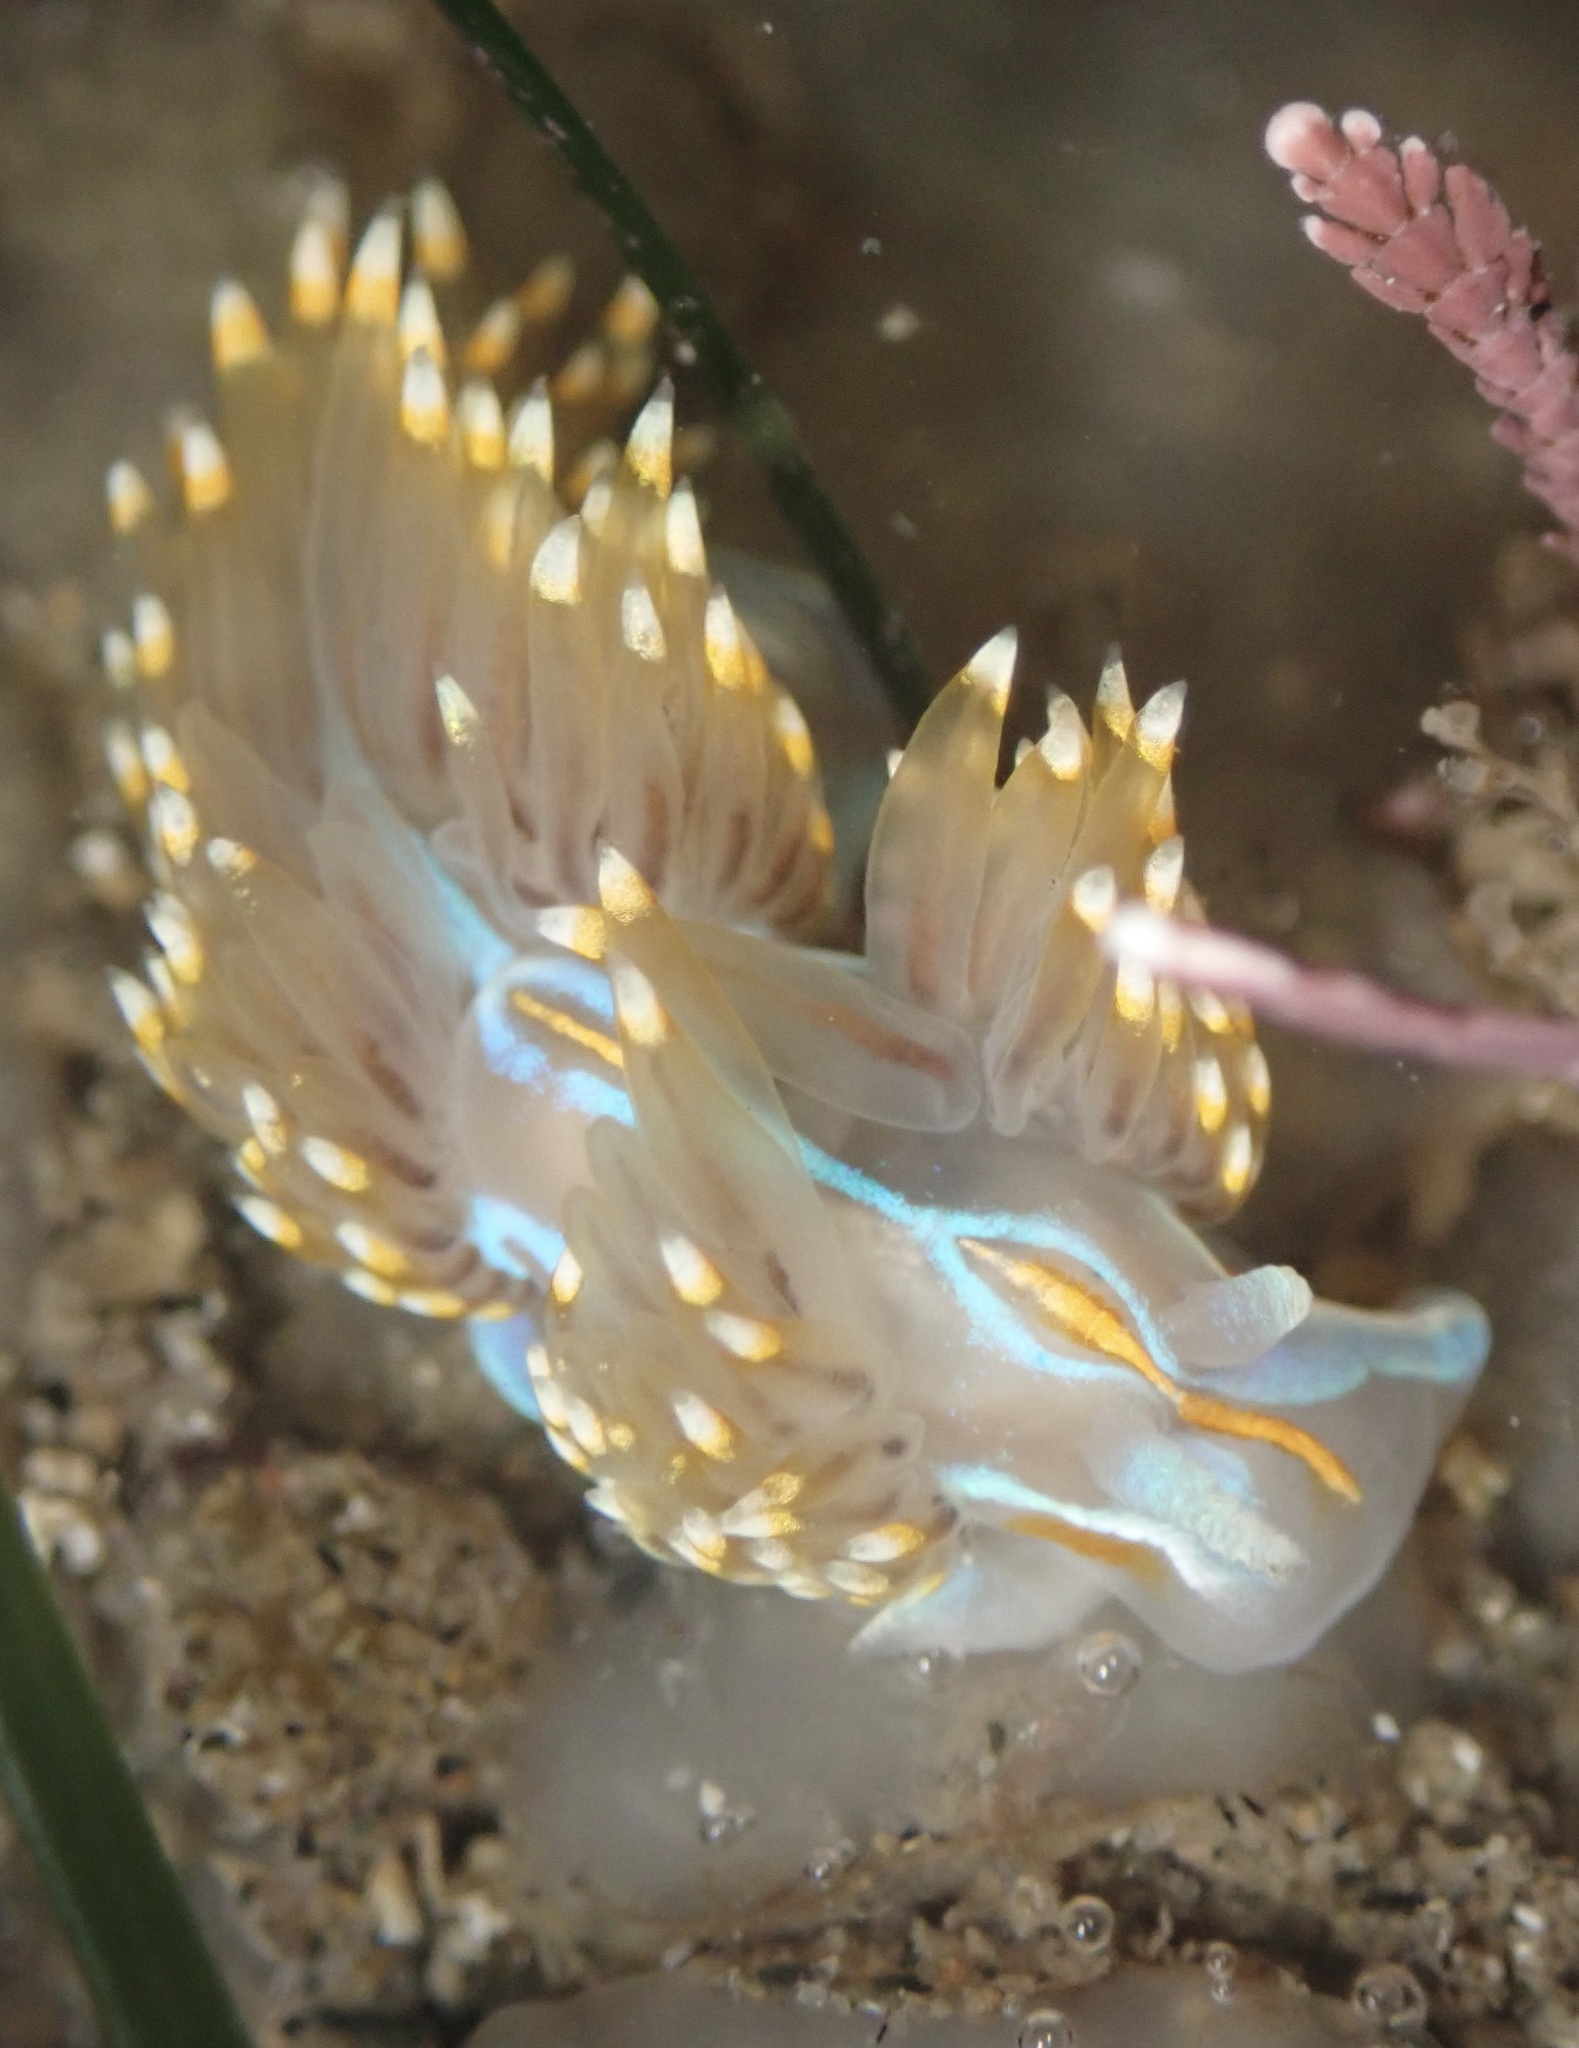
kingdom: Animalia
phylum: Mollusca
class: Gastropoda
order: Nudibranchia
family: Myrrhinidae
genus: Hermissenda
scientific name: Hermissenda opalescens
